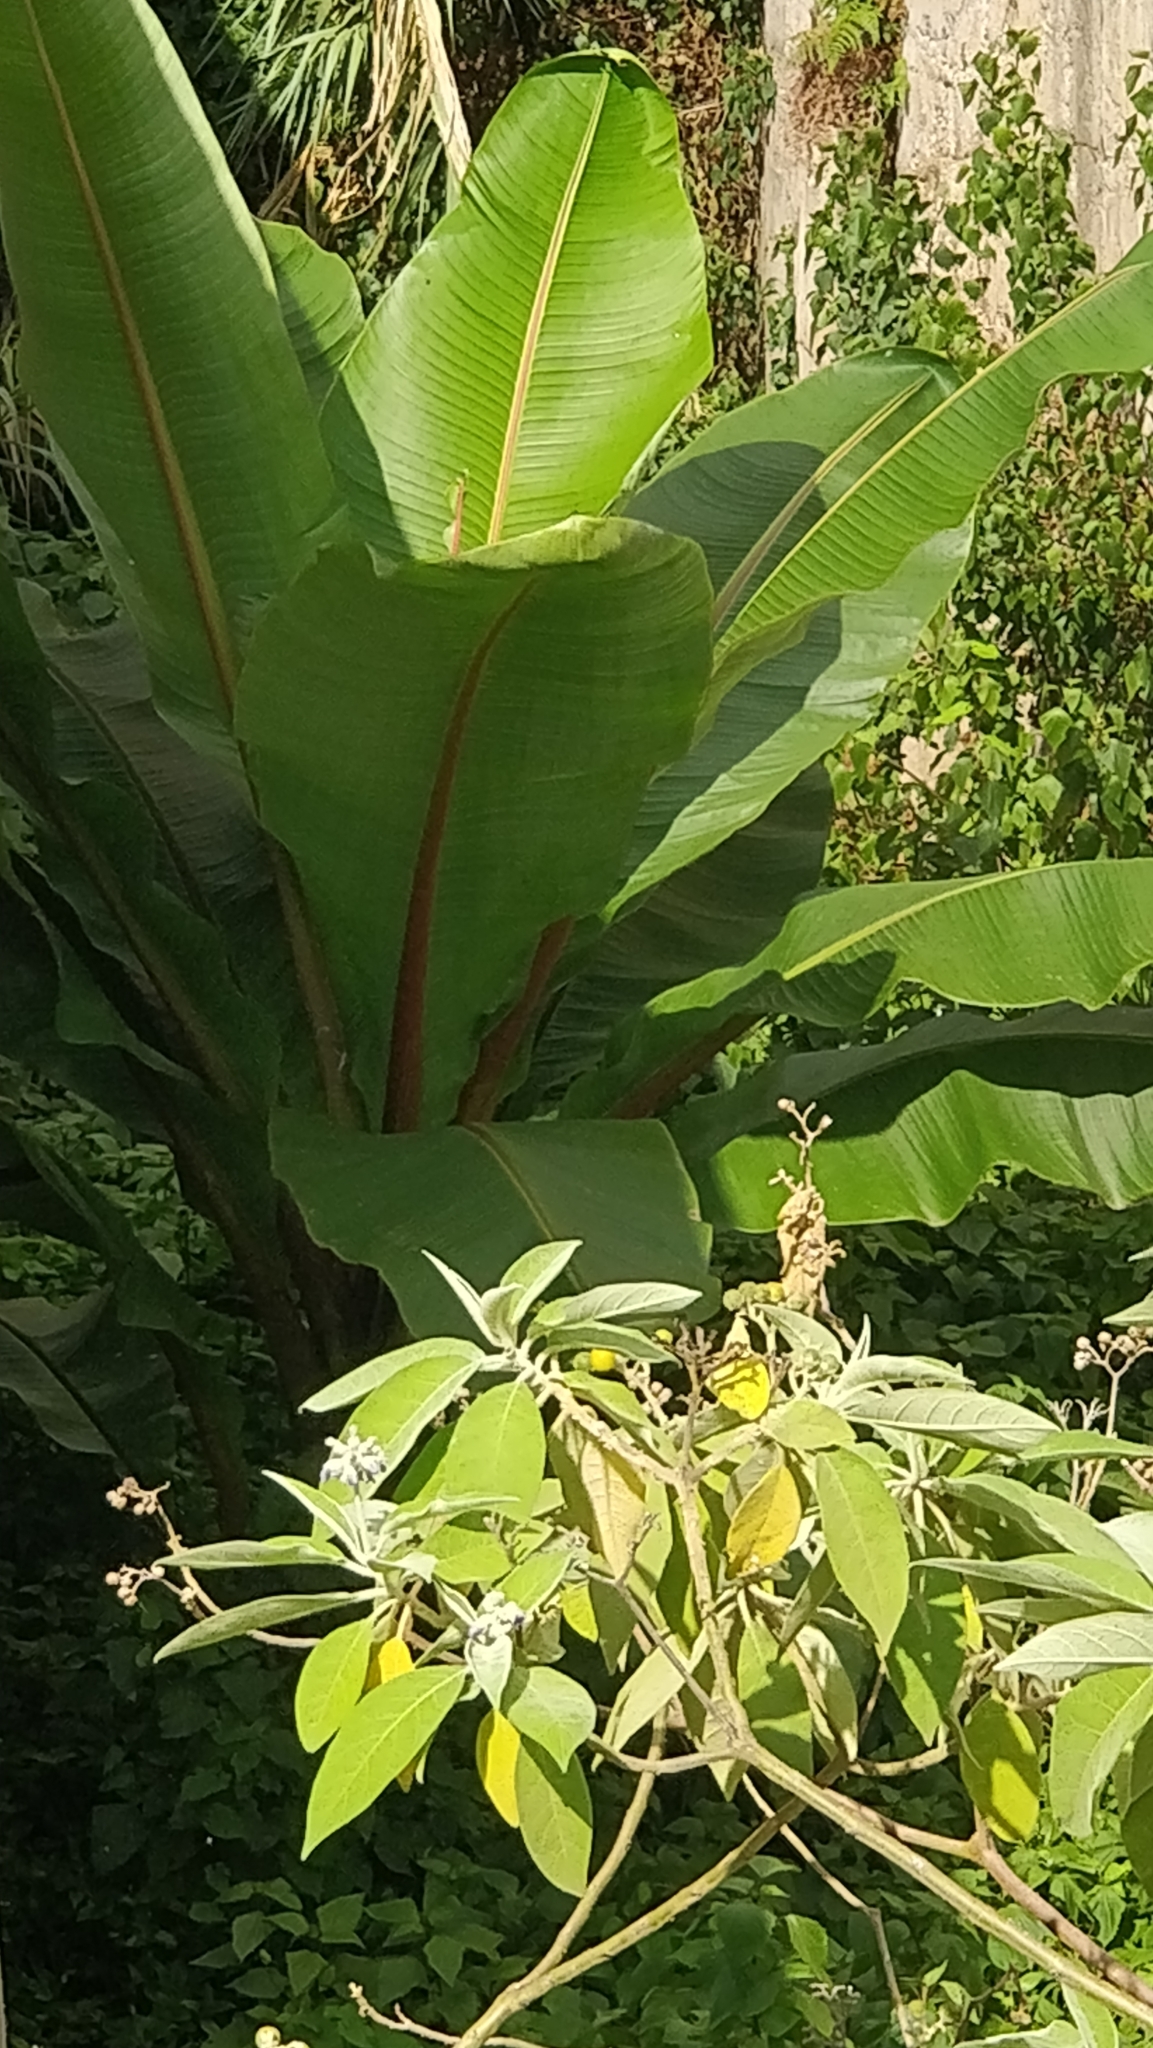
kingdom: Plantae
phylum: Tracheophyta
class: Liliopsida
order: Zingiberales
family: Musaceae
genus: Ensete
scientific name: Ensete ventricosum
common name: Abyssinian banana
